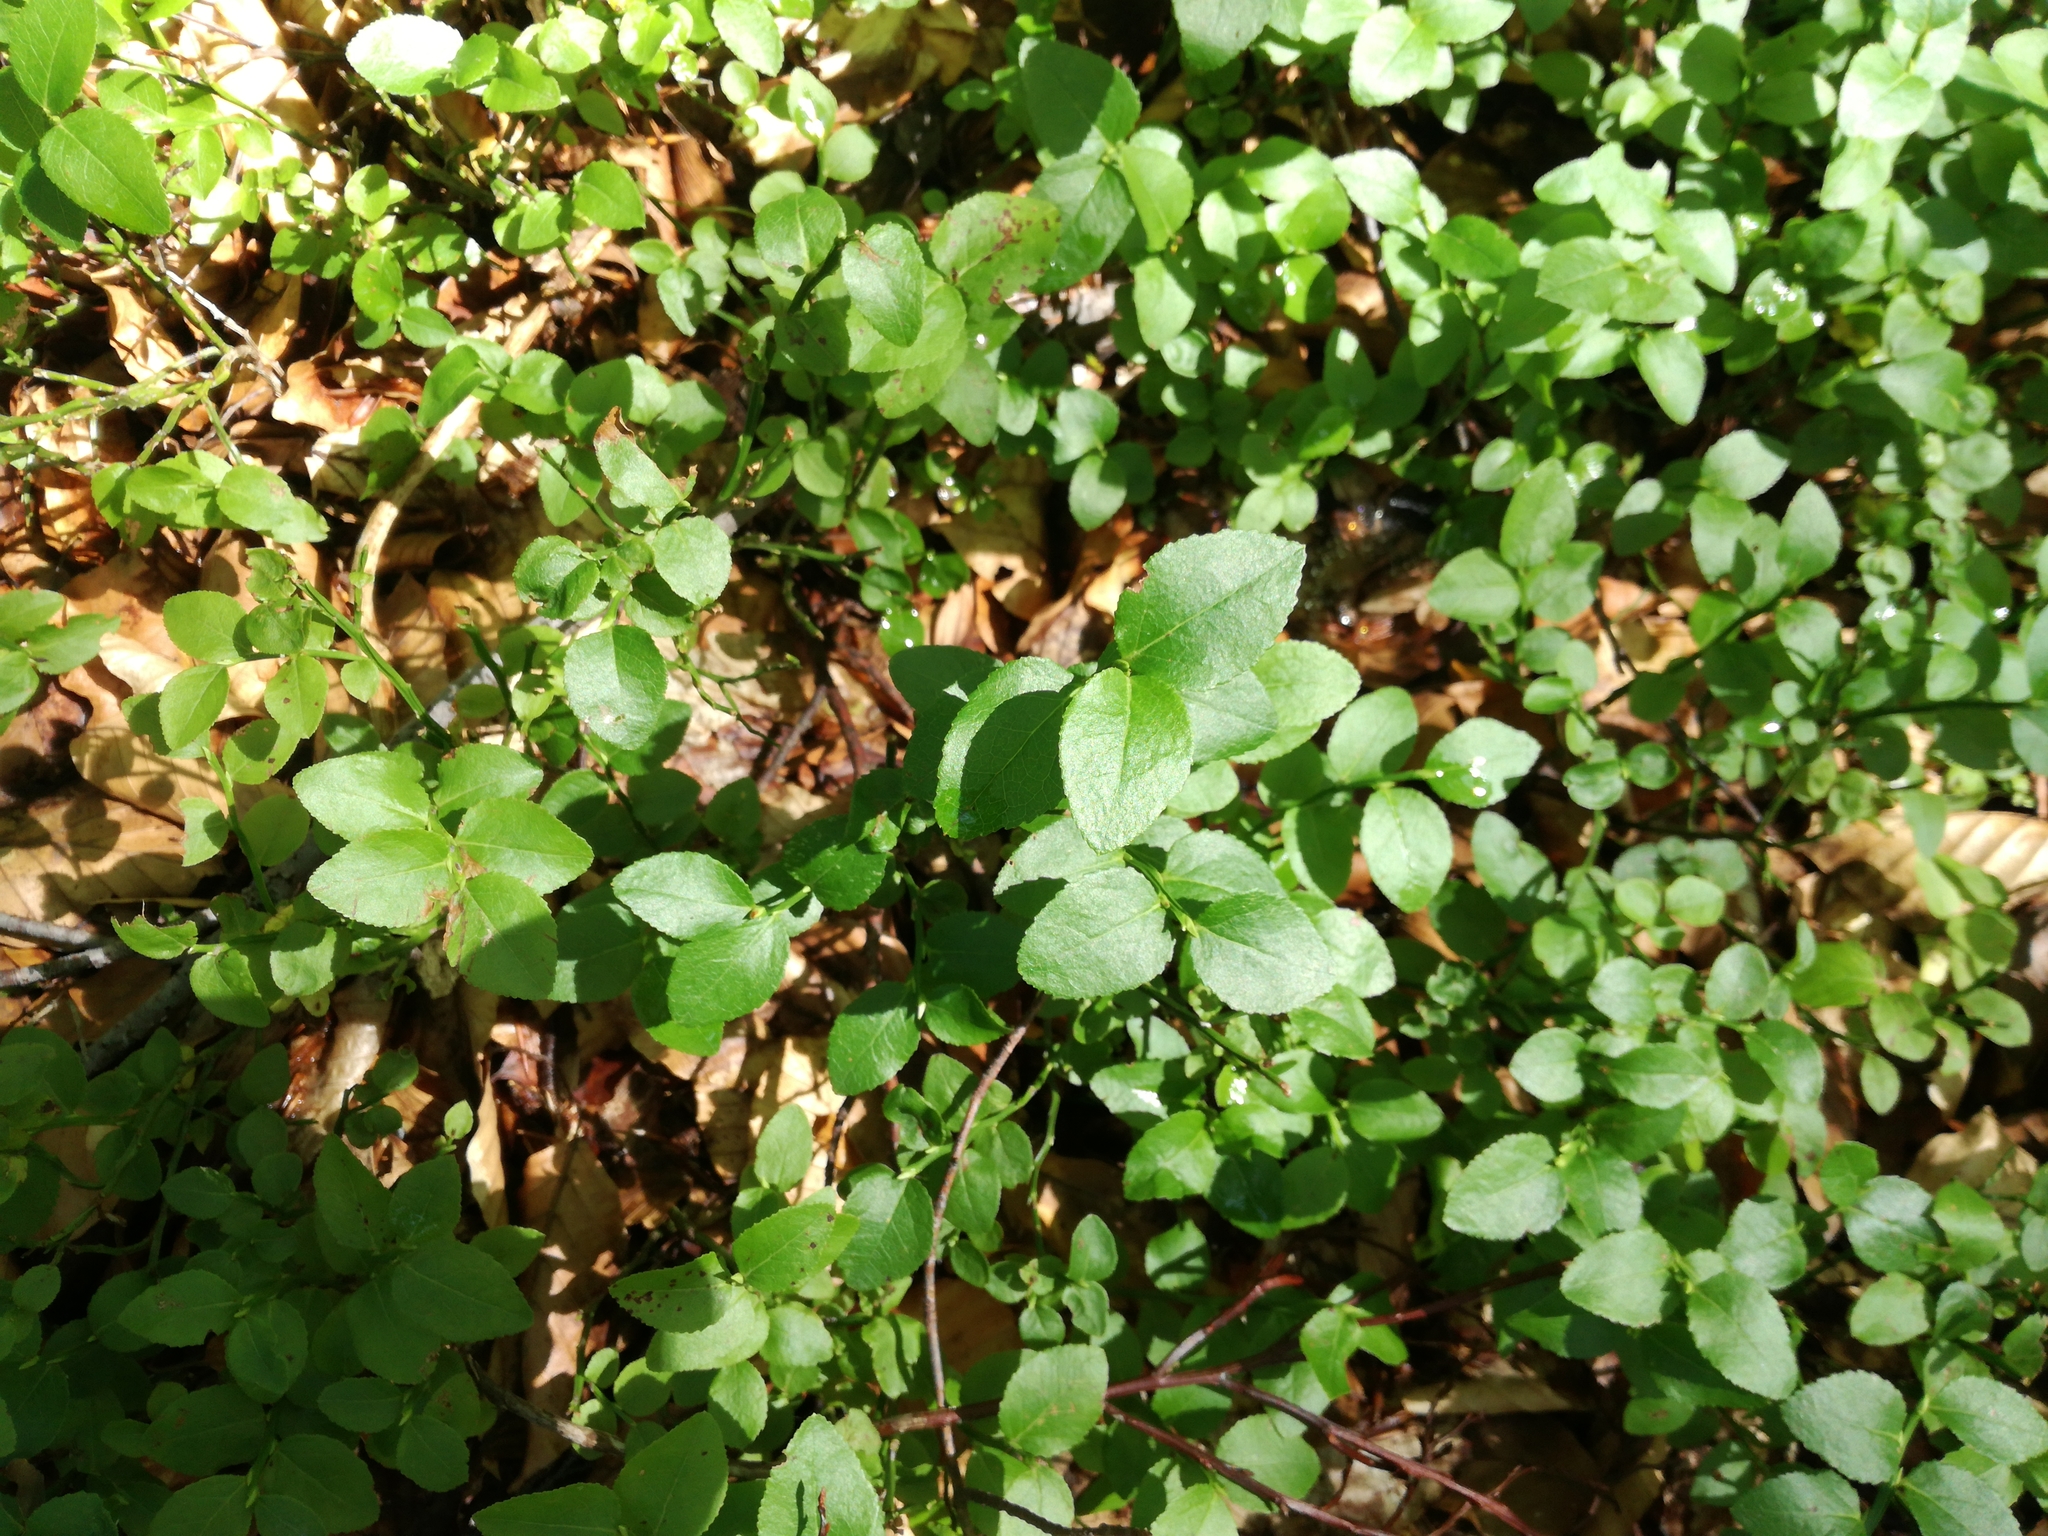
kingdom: Plantae
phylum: Tracheophyta
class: Magnoliopsida
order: Ericales
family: Ericaceae
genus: Vaccinium
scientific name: Vaccinium myrtillus
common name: Bilberry
